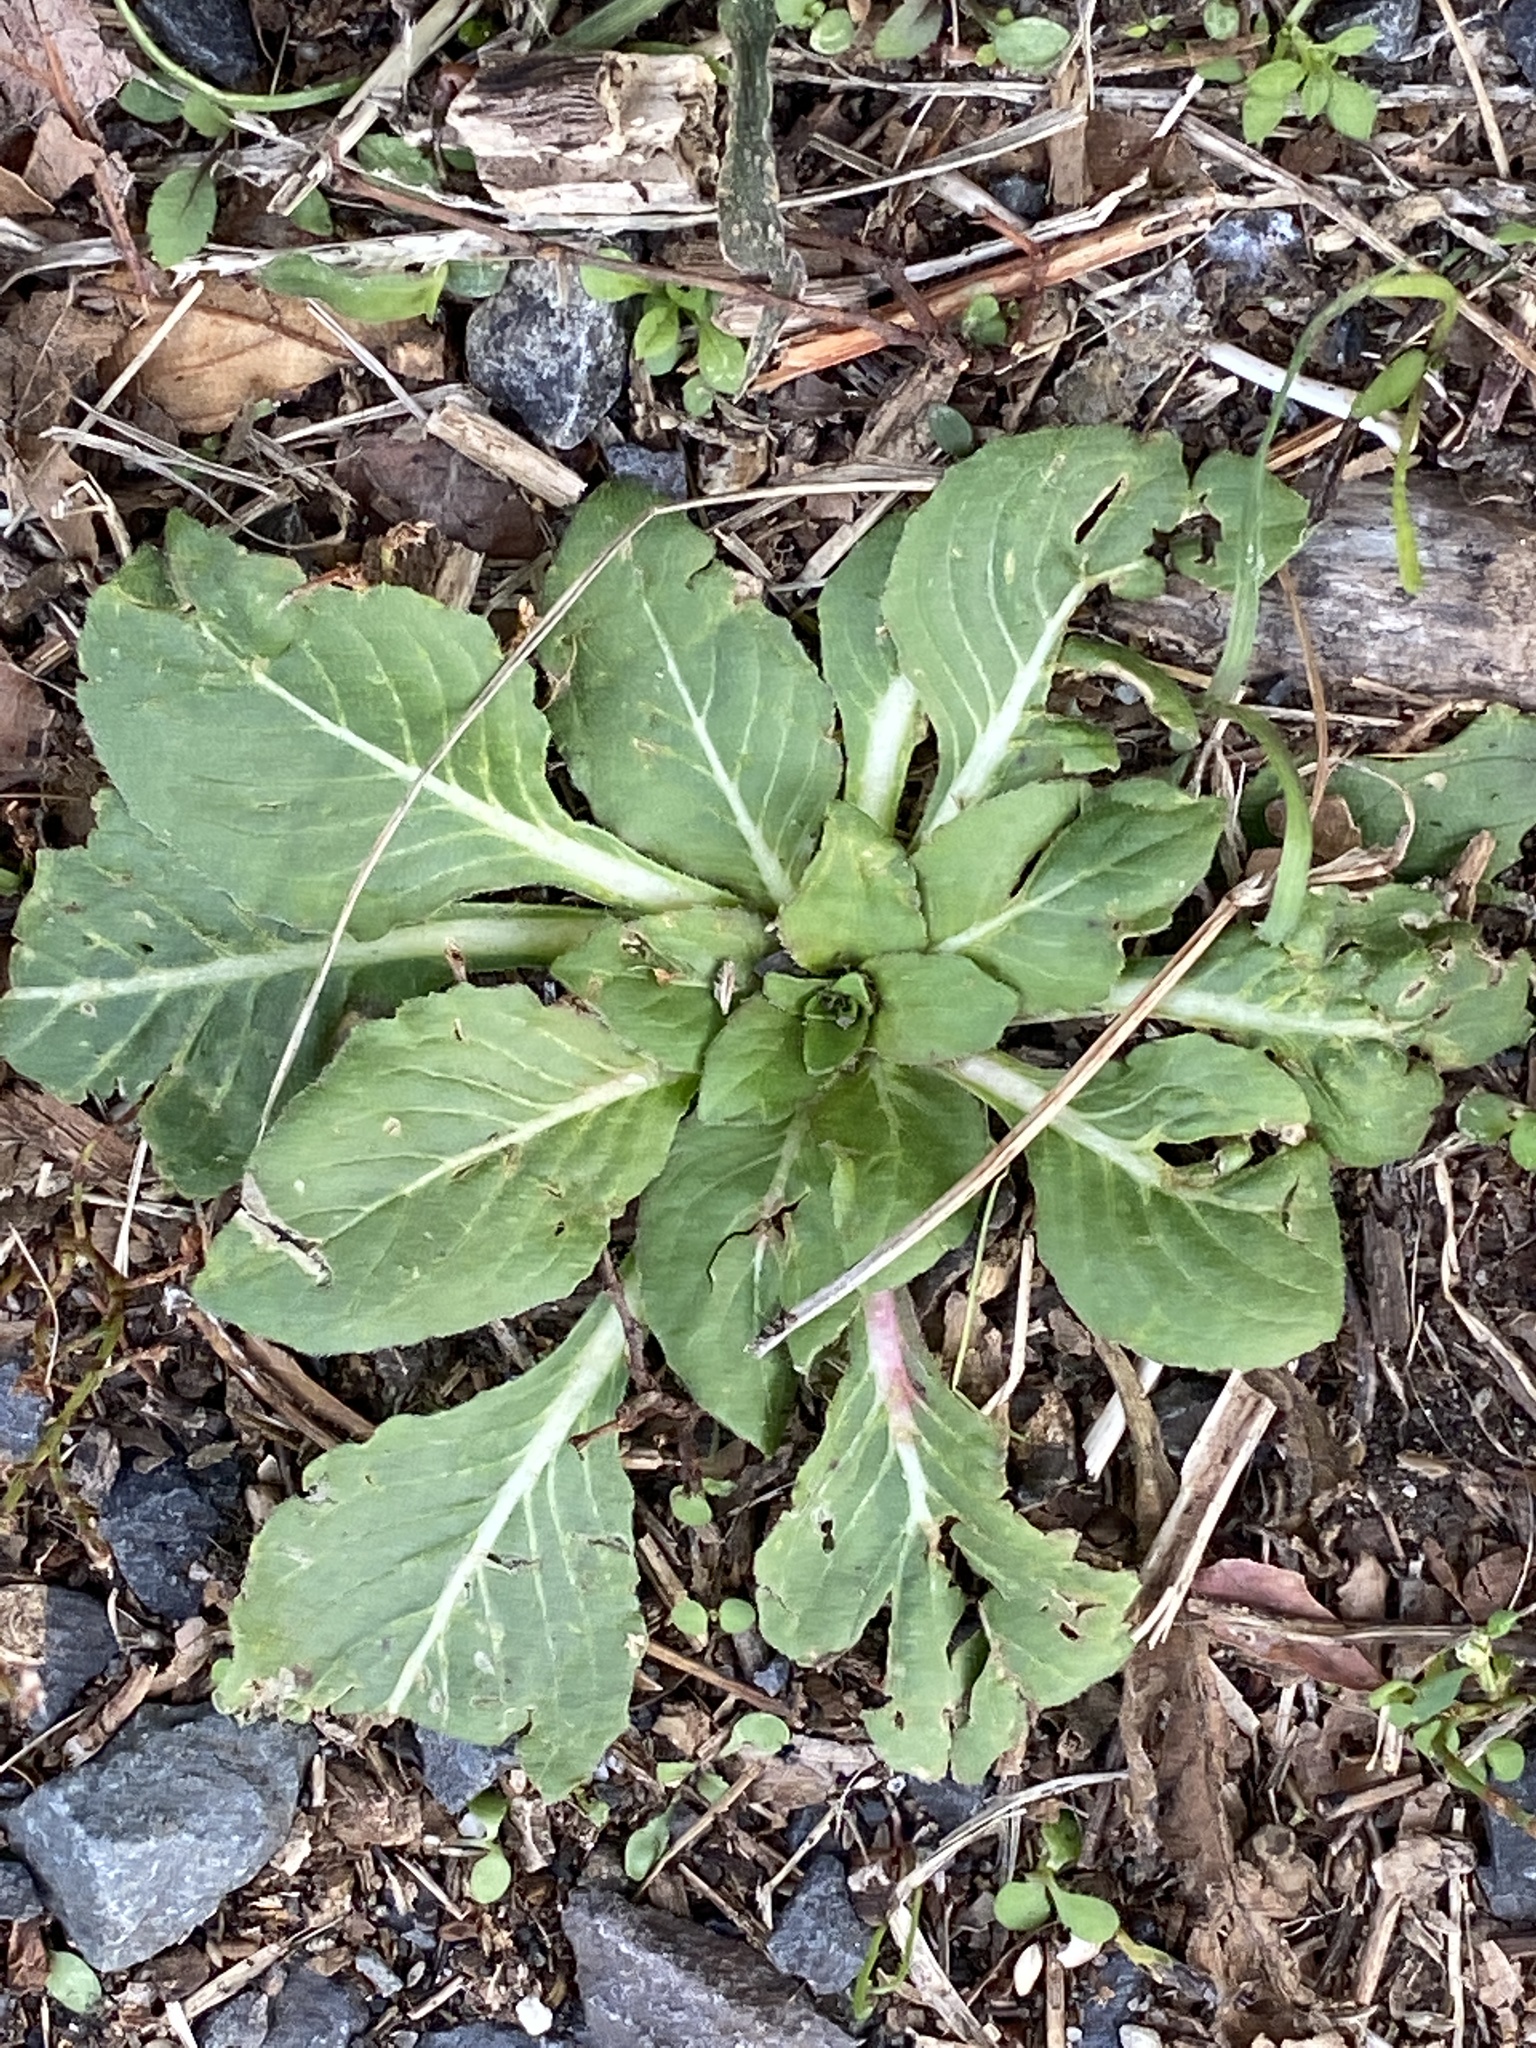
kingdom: Plantae
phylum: Tracheophyta
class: Magnoliopsida
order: Myrtales
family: Onagraceae
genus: Oenothera
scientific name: Oenothera biennis
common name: Common evening-primrose
